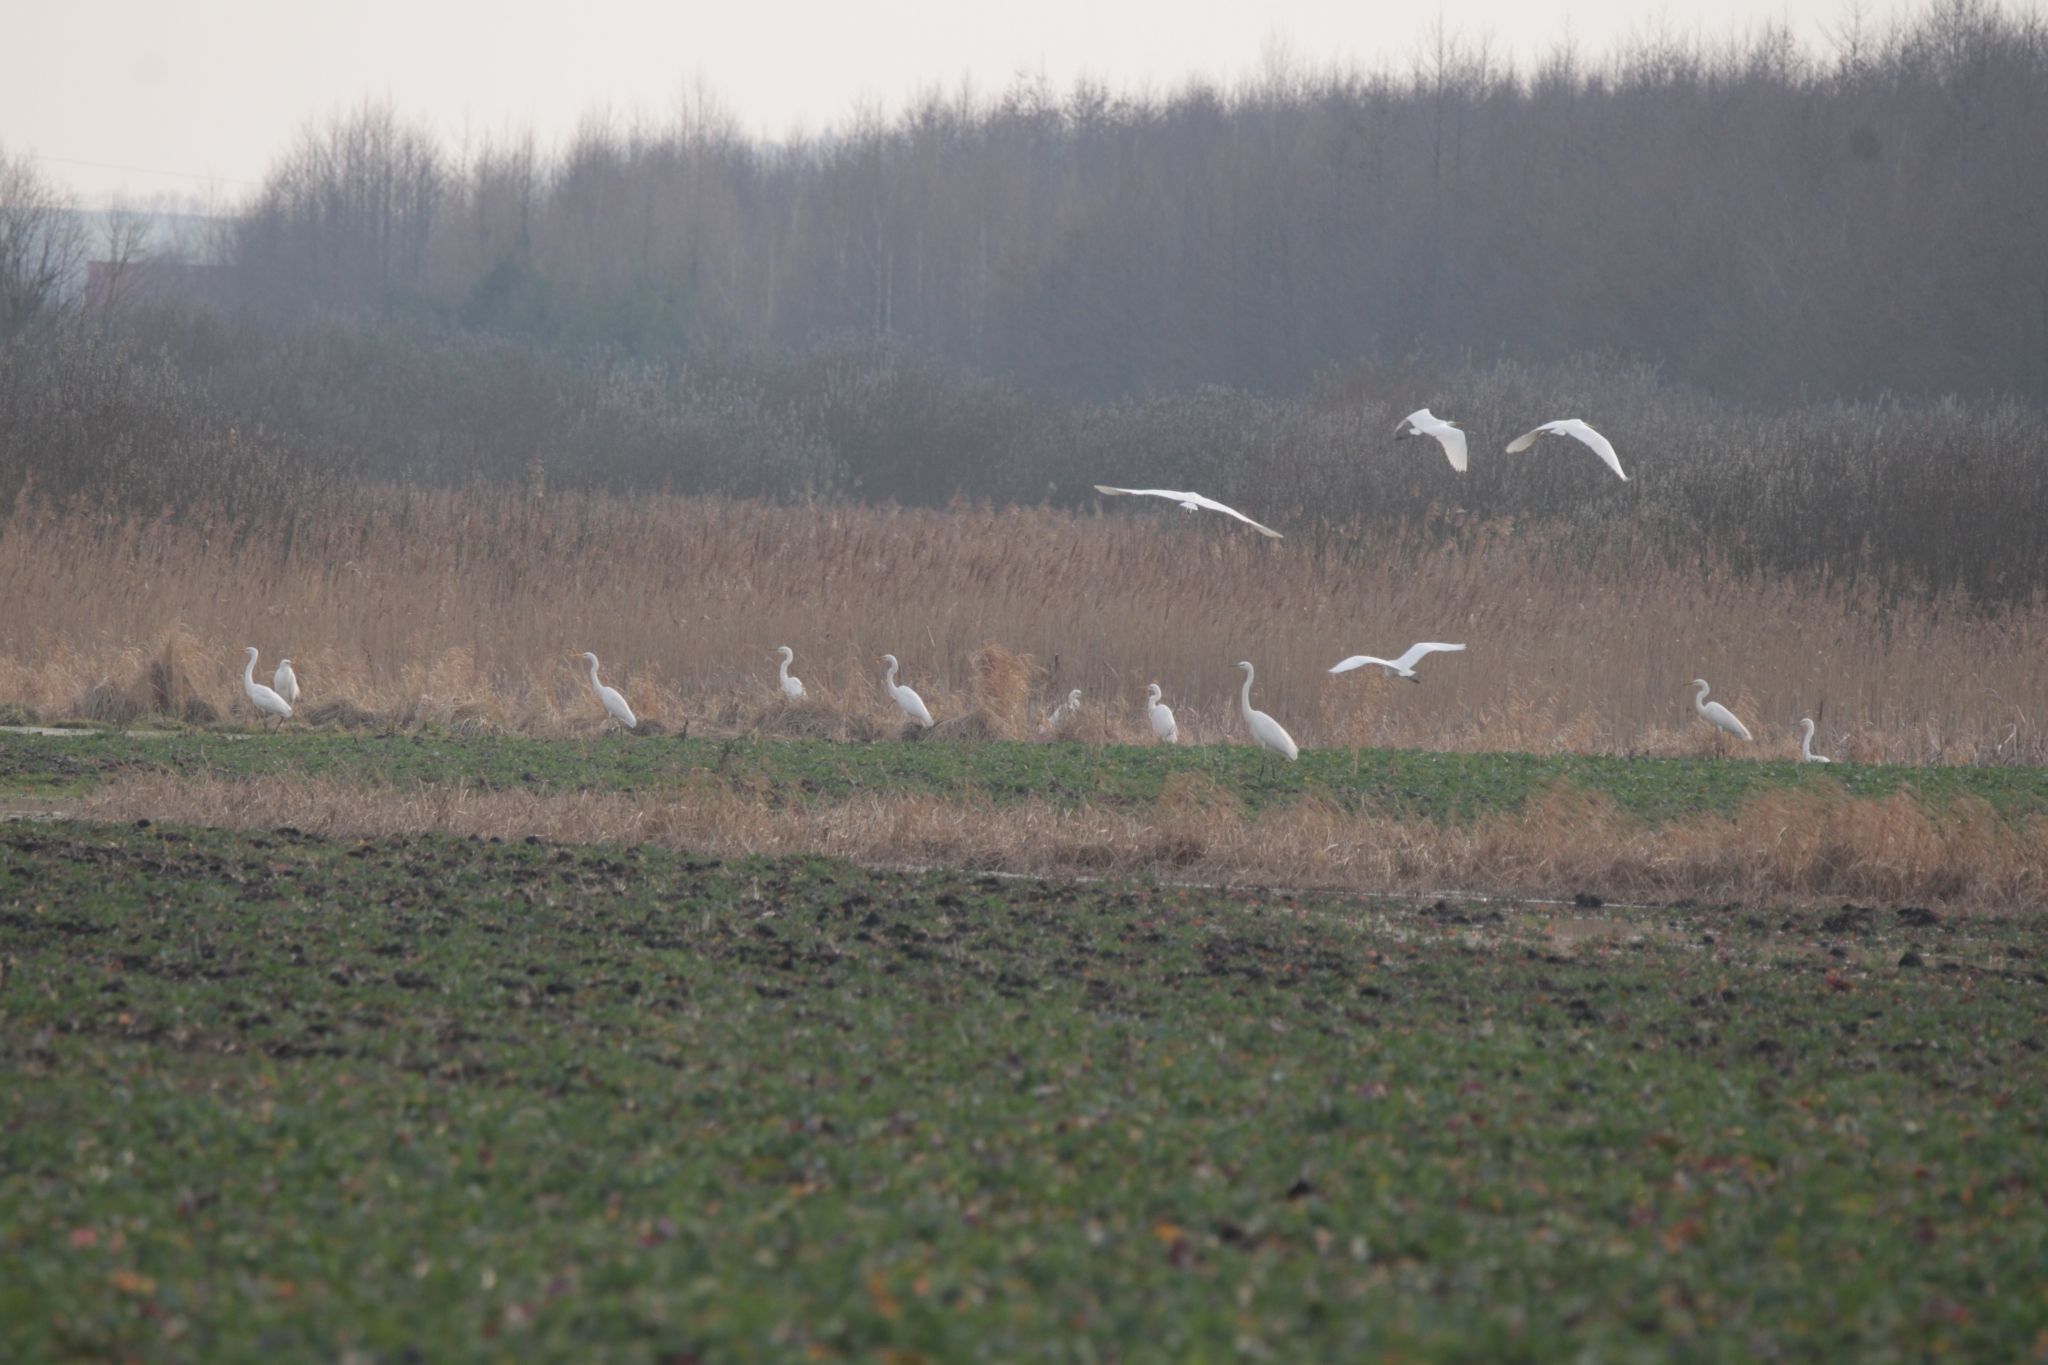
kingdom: Animalia
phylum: Chordata
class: Aves
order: Pelecaniformes
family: Ardeidae
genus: Ardea
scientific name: Ardea alba
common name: Great egret
